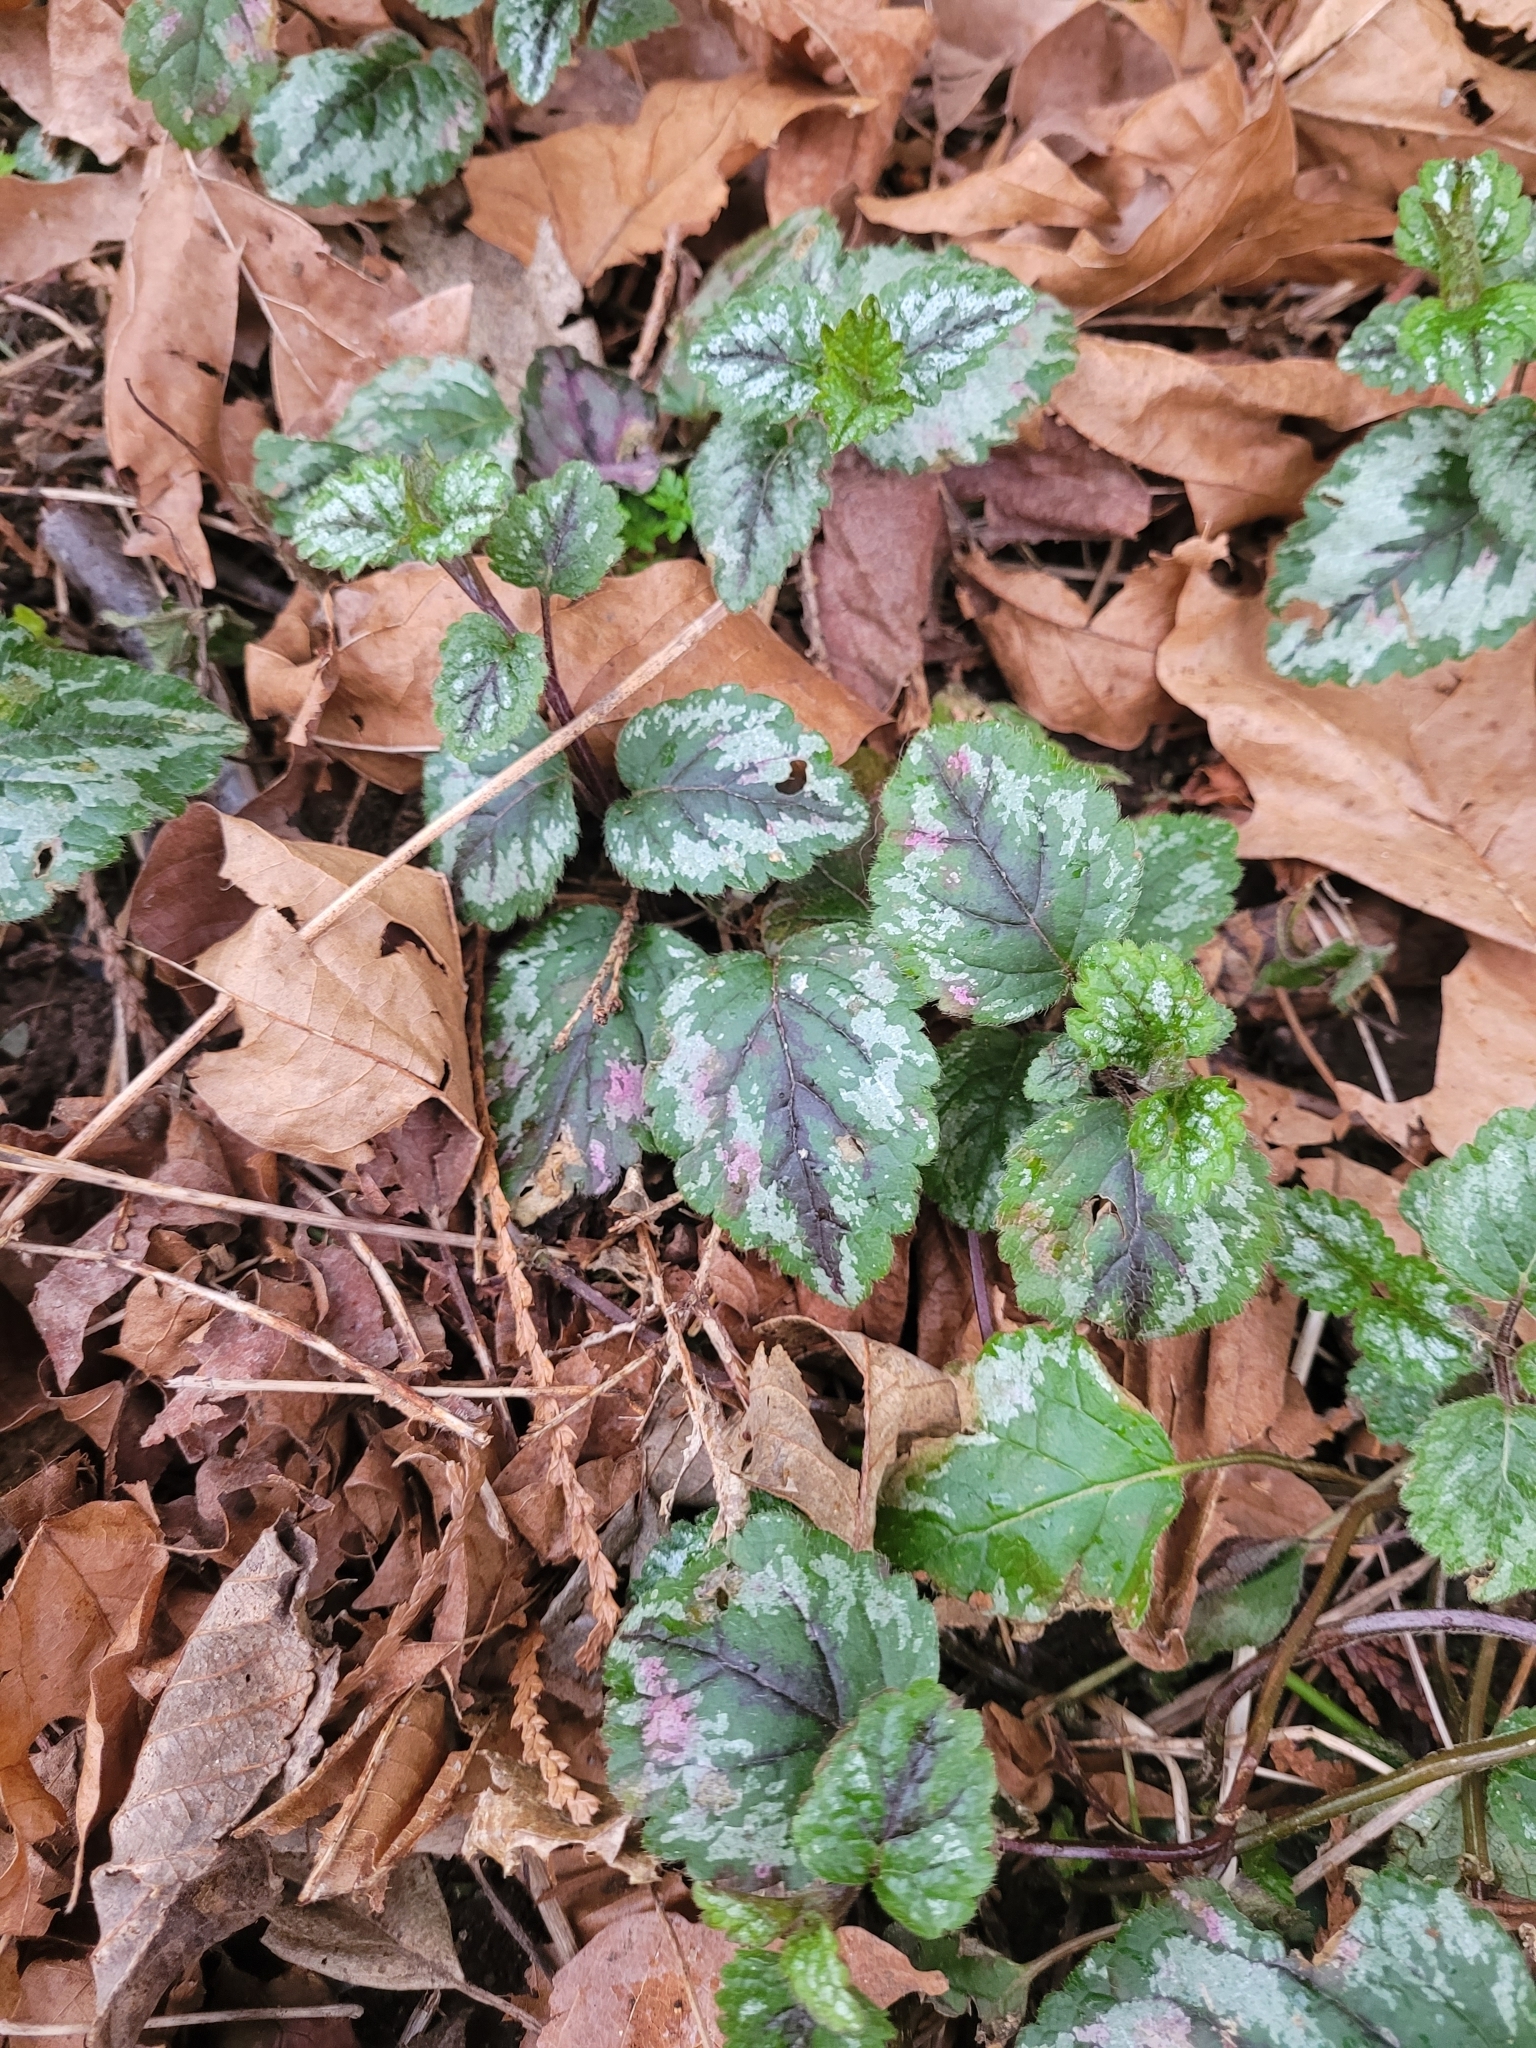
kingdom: Plantae
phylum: Tracheophyta
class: Magnoliopsida
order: Lamiales
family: Lamiaceae
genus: Lamium
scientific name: Lamium galeobdolon
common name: Yellow archangel
